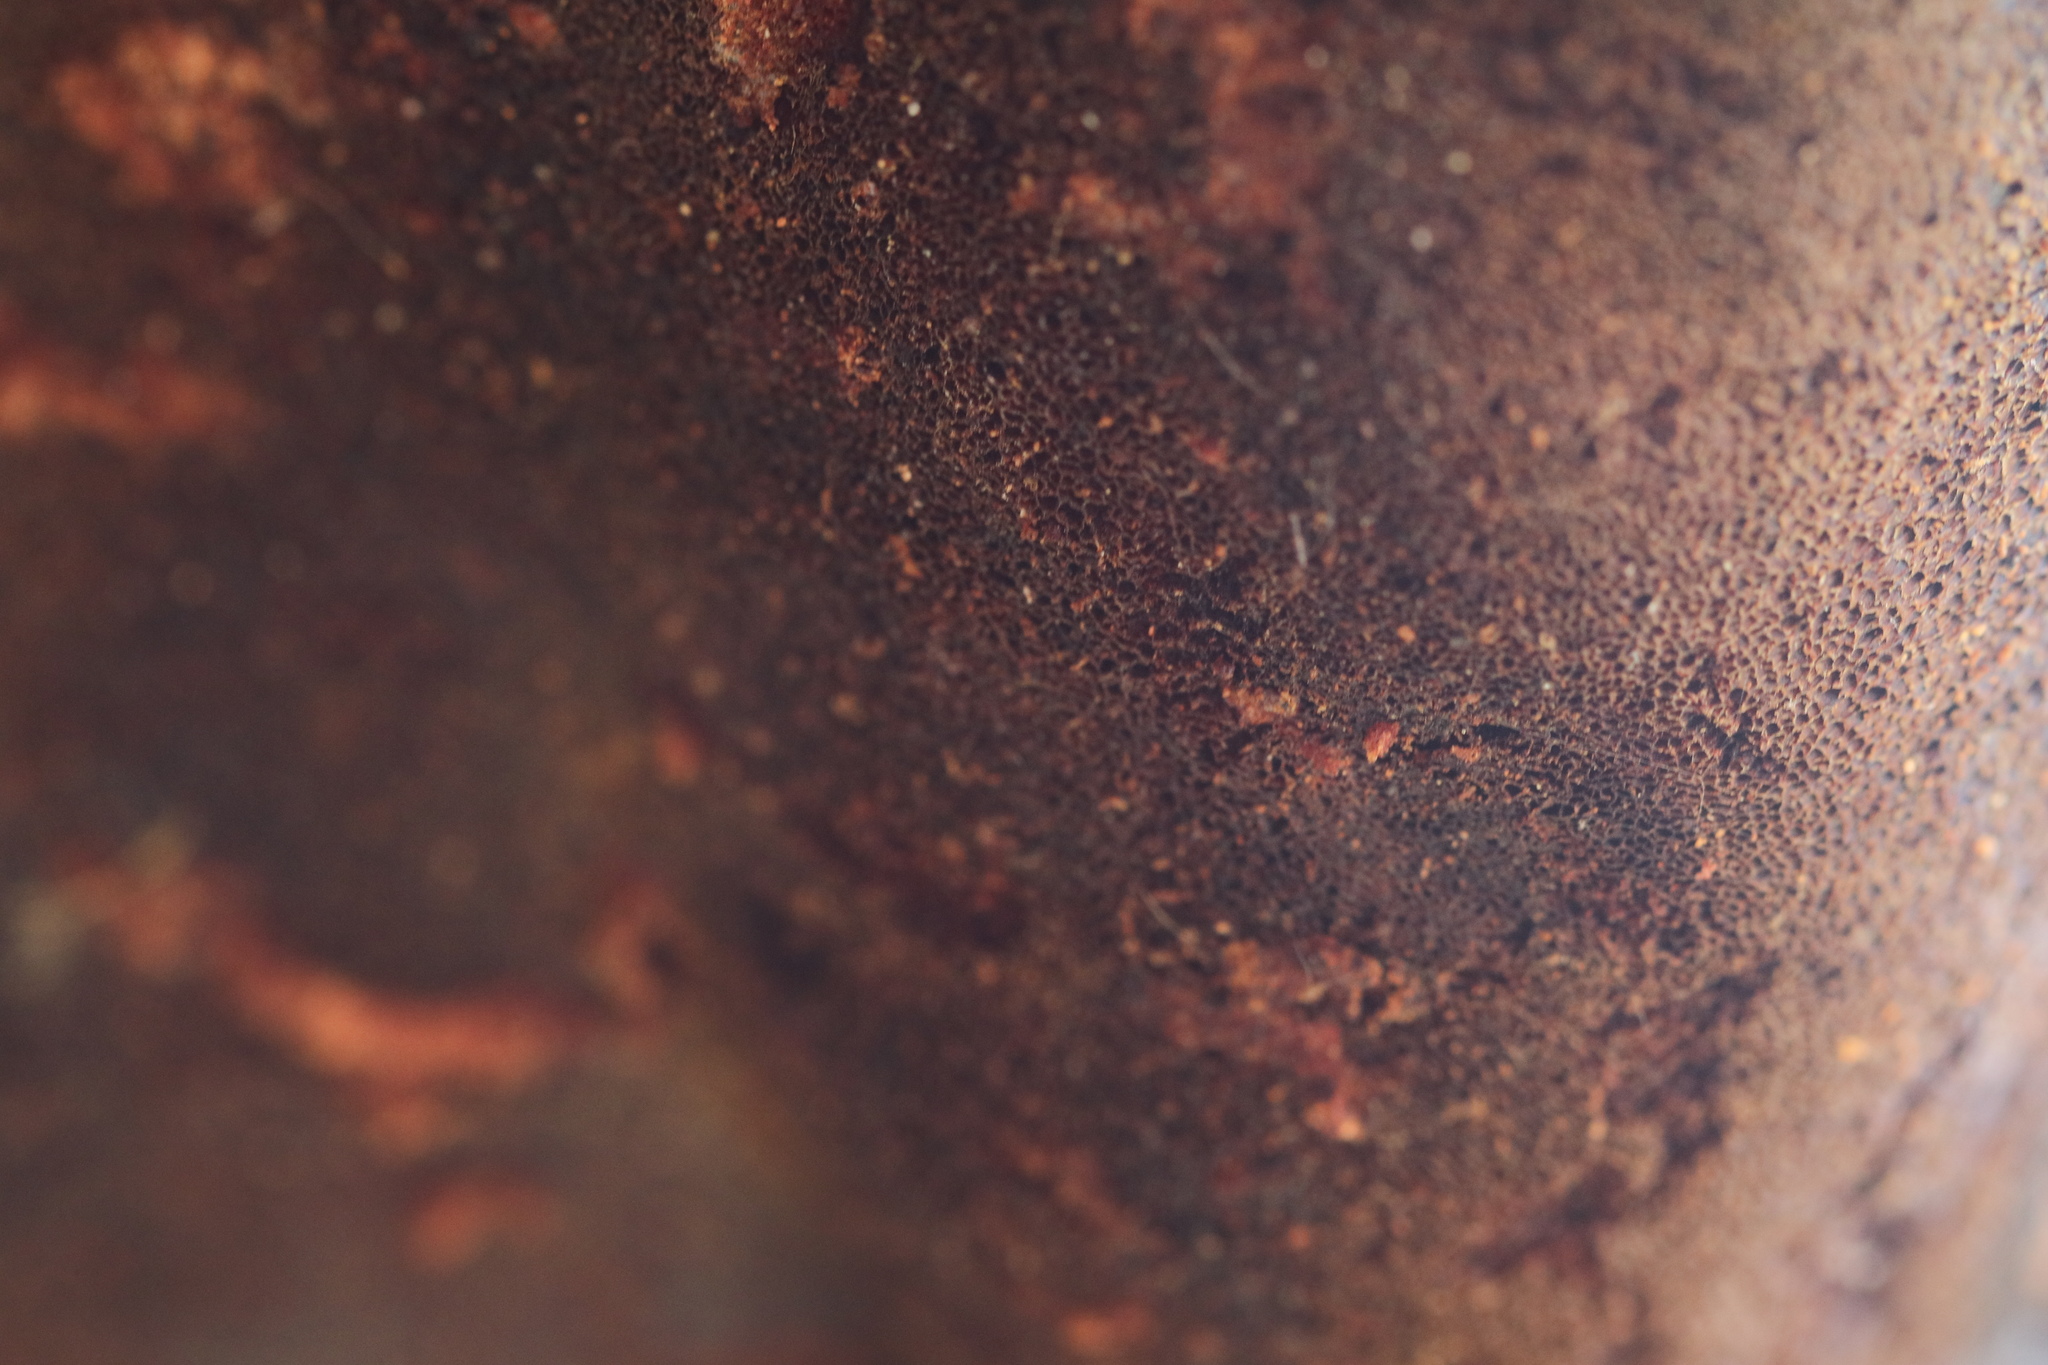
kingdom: Fungi
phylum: Basidiomycota
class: Agaricomycetes
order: Polyporales
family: Meruliaceae
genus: Spongipellis
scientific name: Spongipellis
